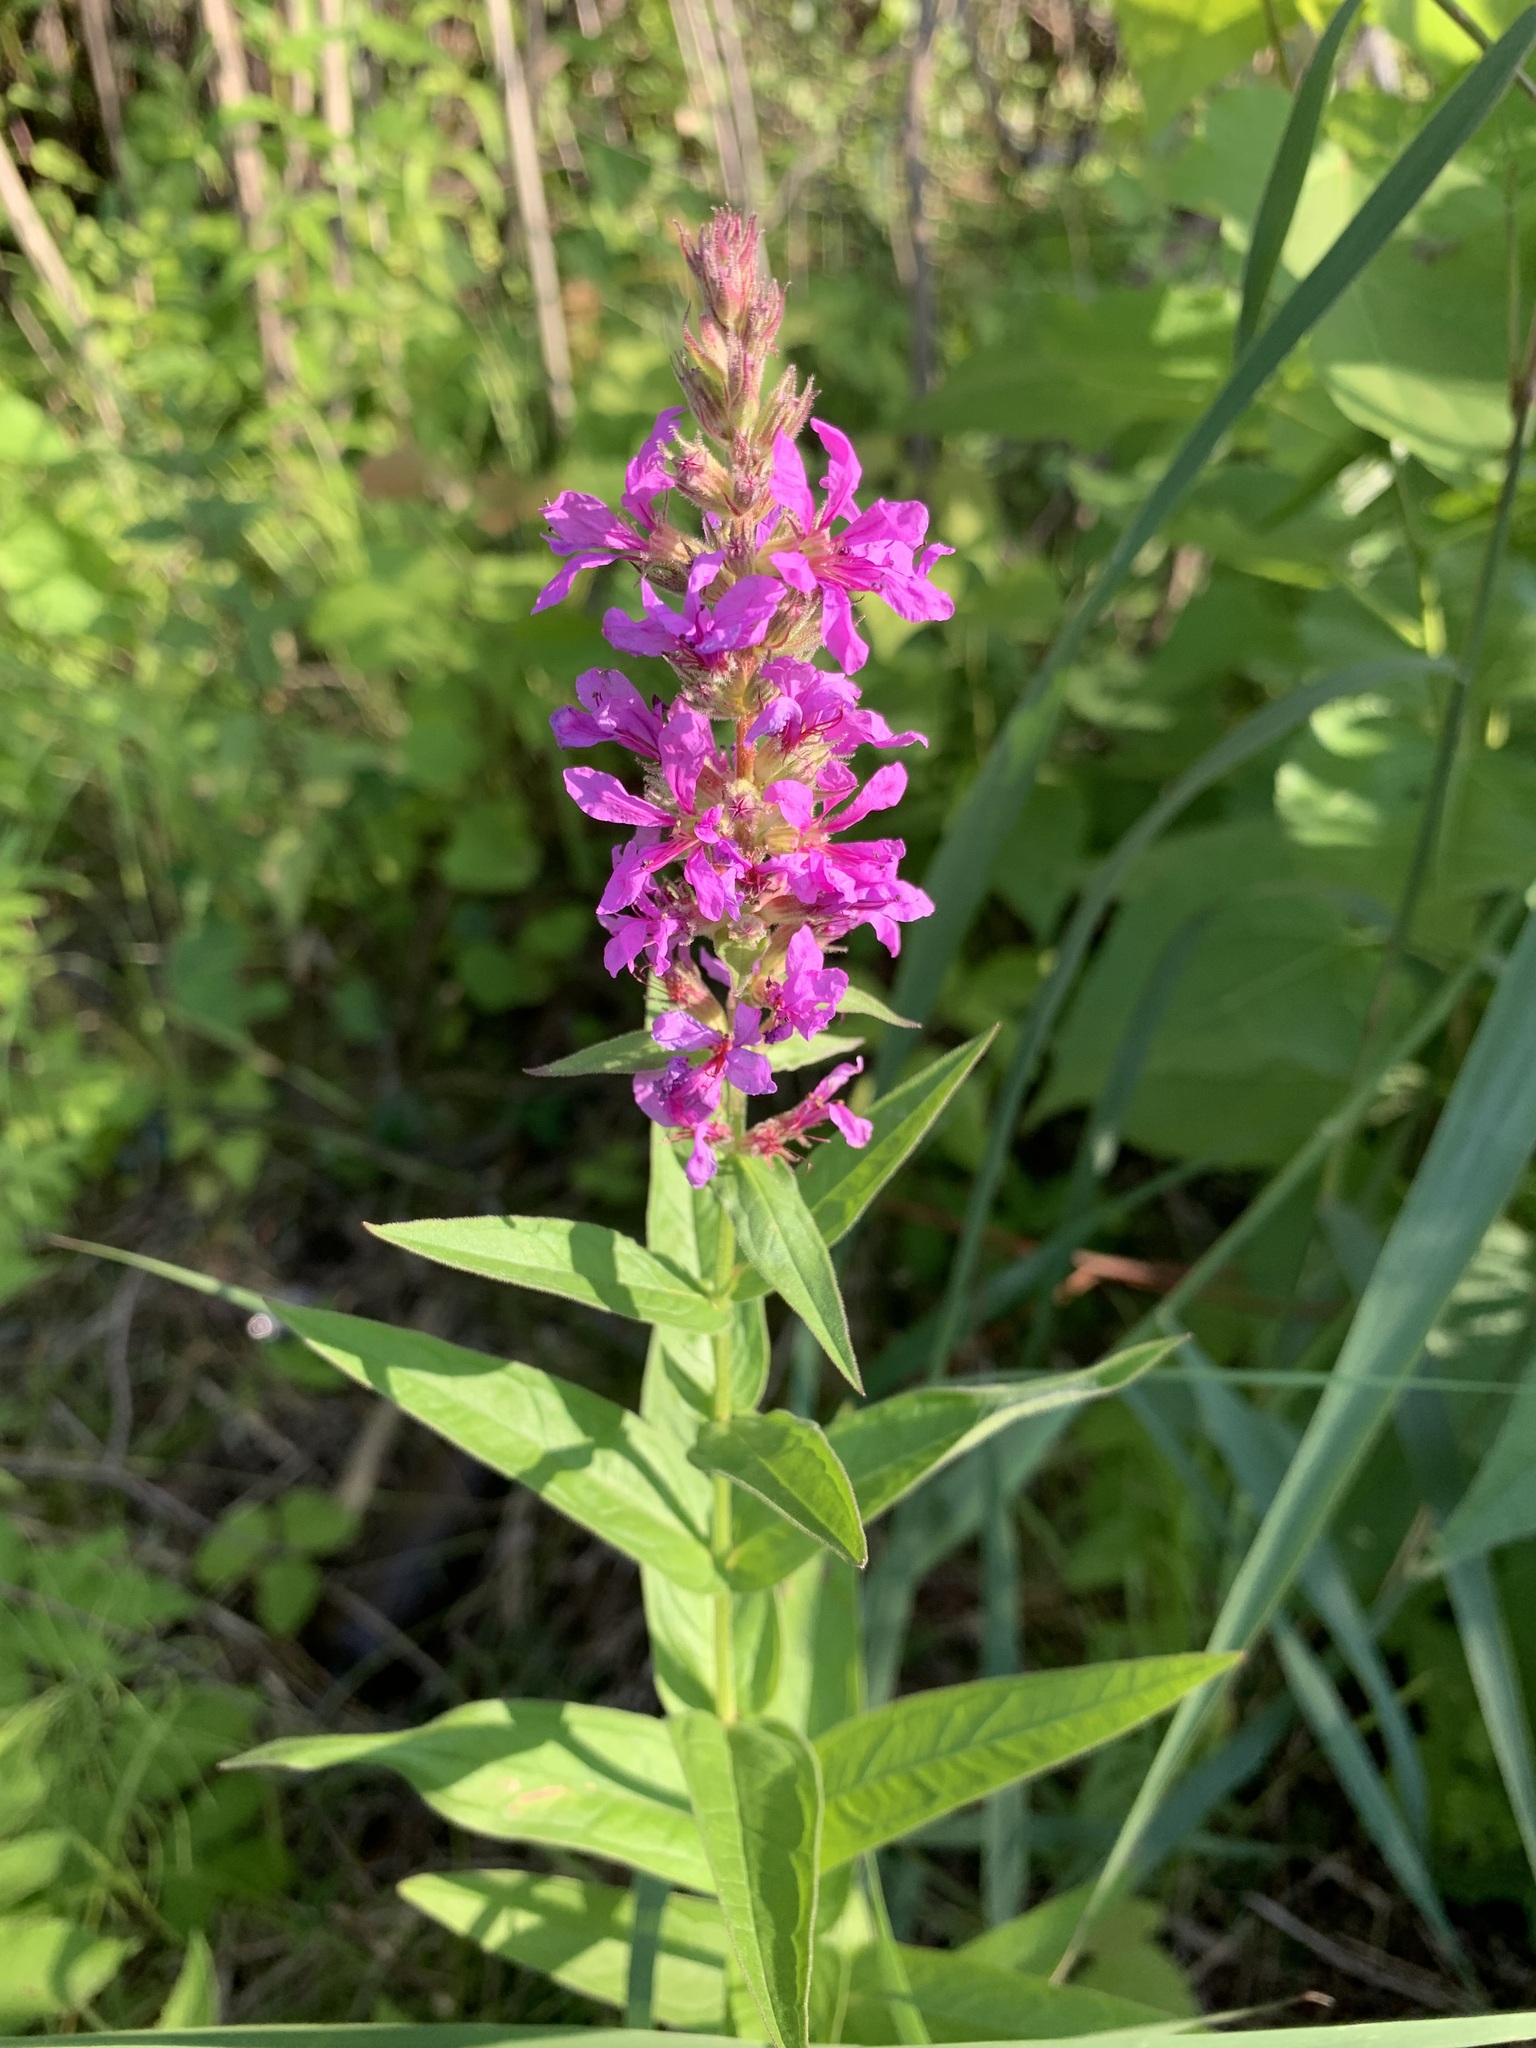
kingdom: Plantae
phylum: Tracheophyta
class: Magnoliopsida
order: Myrtales
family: Lythraceae
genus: Lythrum
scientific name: Lythrum salicaria
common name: Purple loosestrife
